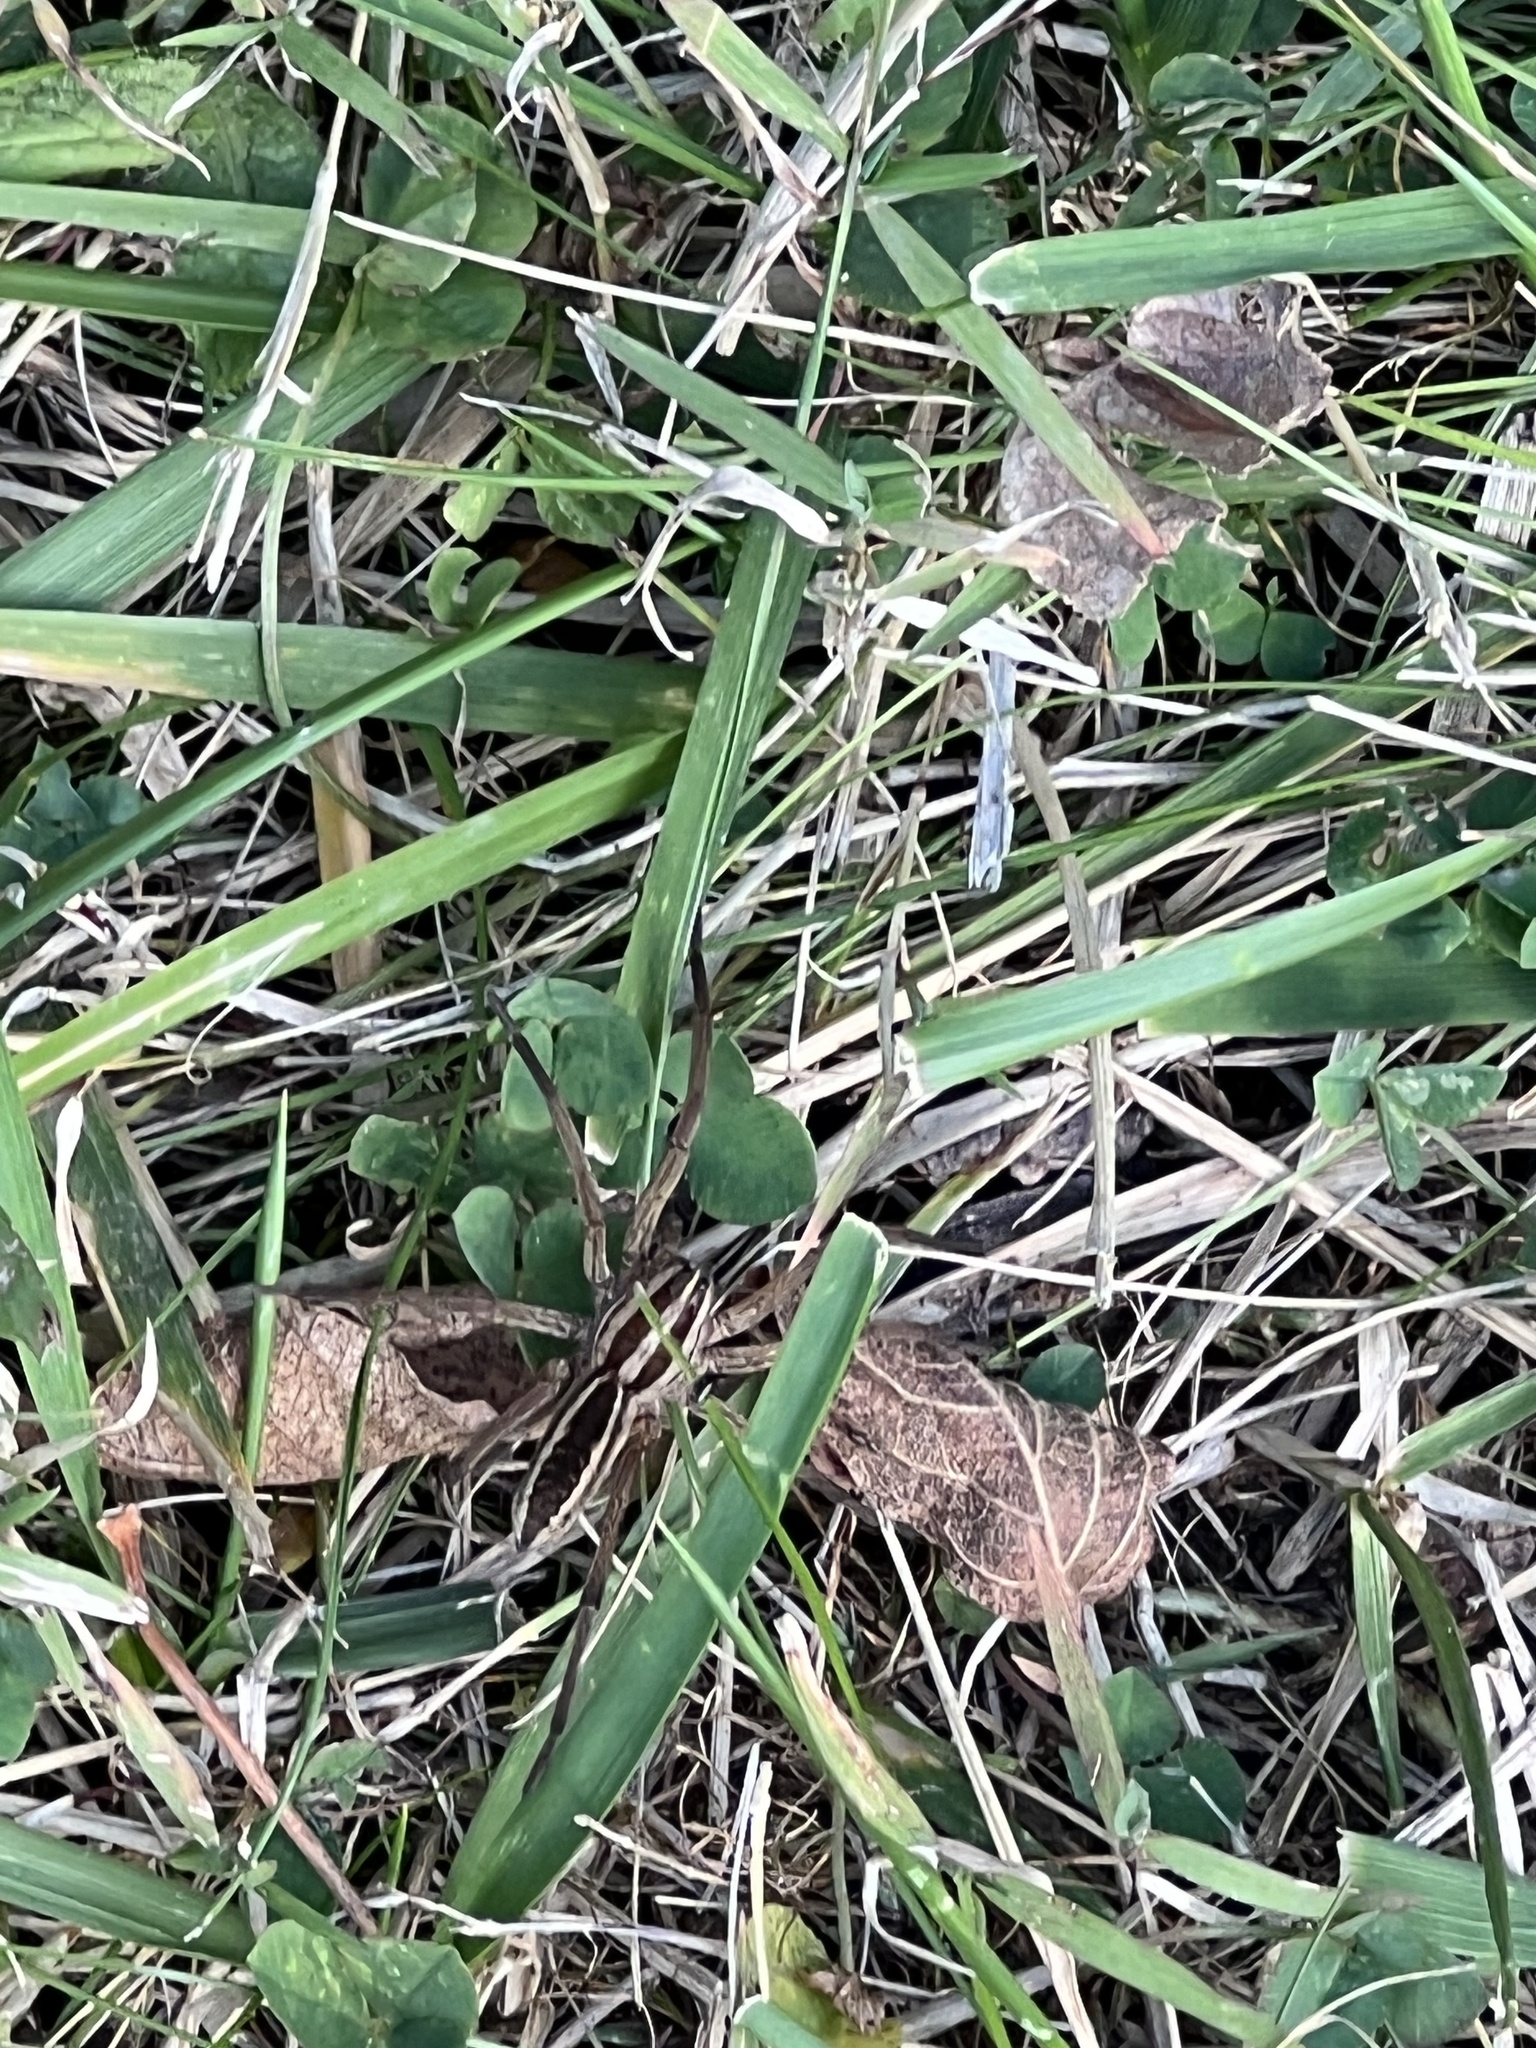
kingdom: Animalia
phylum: Arthropoda
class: Arachnida
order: Araneae
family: Lycosidae
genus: Rabidosa
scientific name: Rabidosa rabida
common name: Rabid wolf spider
